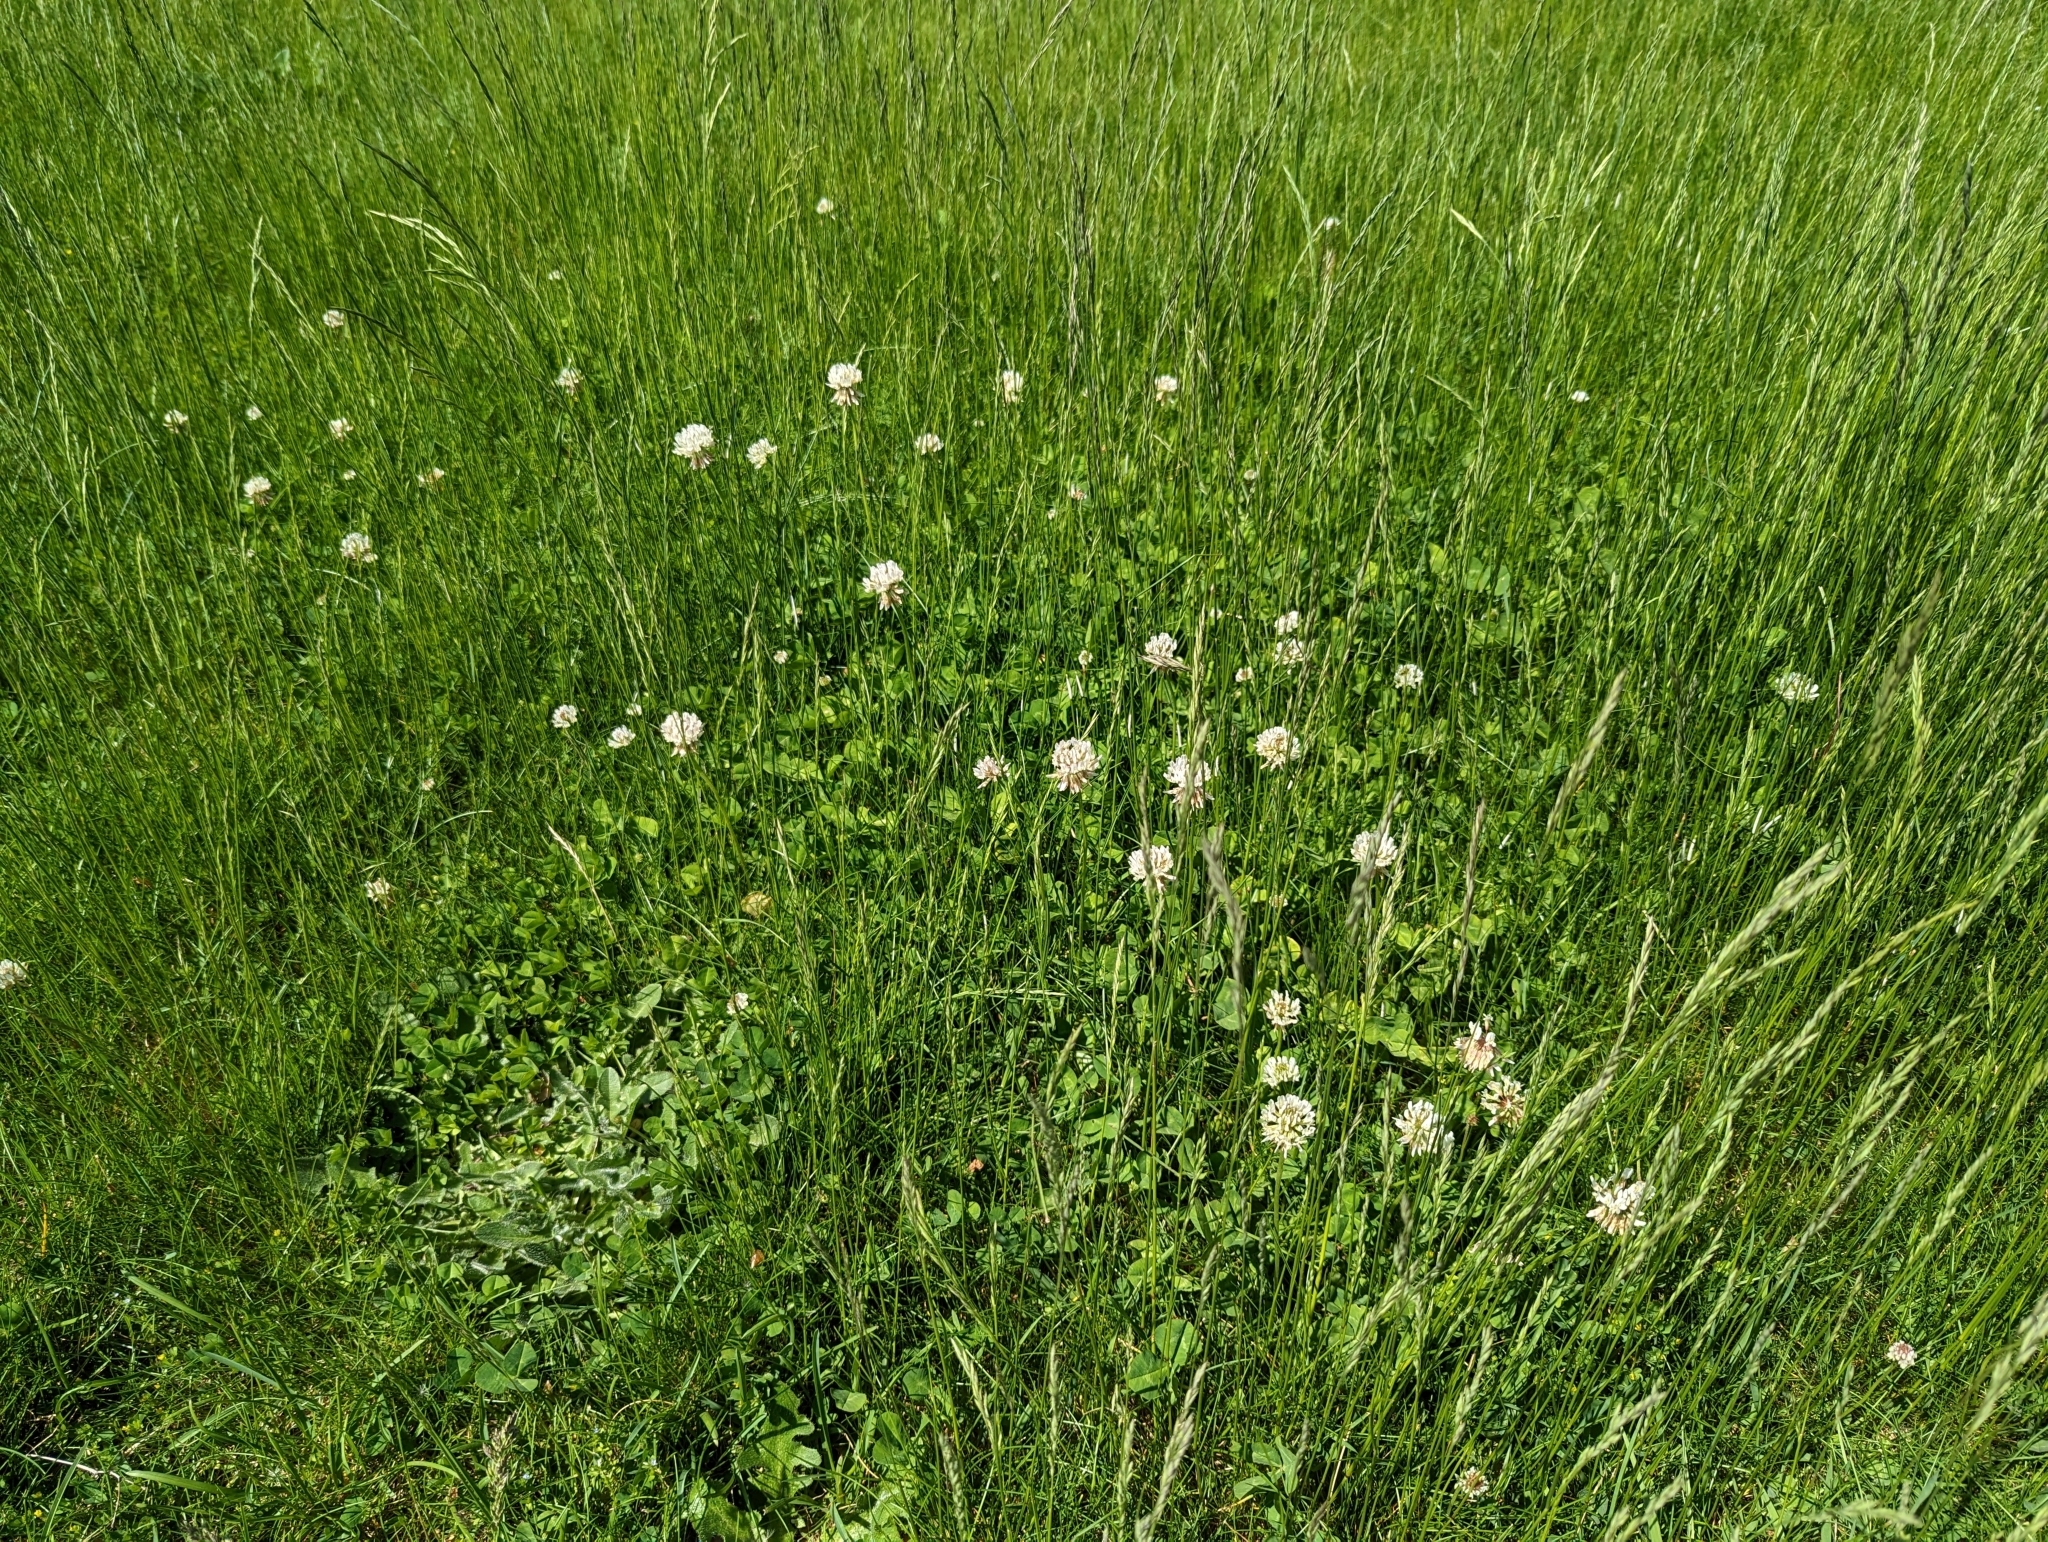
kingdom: Plantae
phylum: Tracheophyta
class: Magnoliopsida
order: Fabales
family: Fabaceae
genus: Trifolium
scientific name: Trifolium repens
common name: White clover
